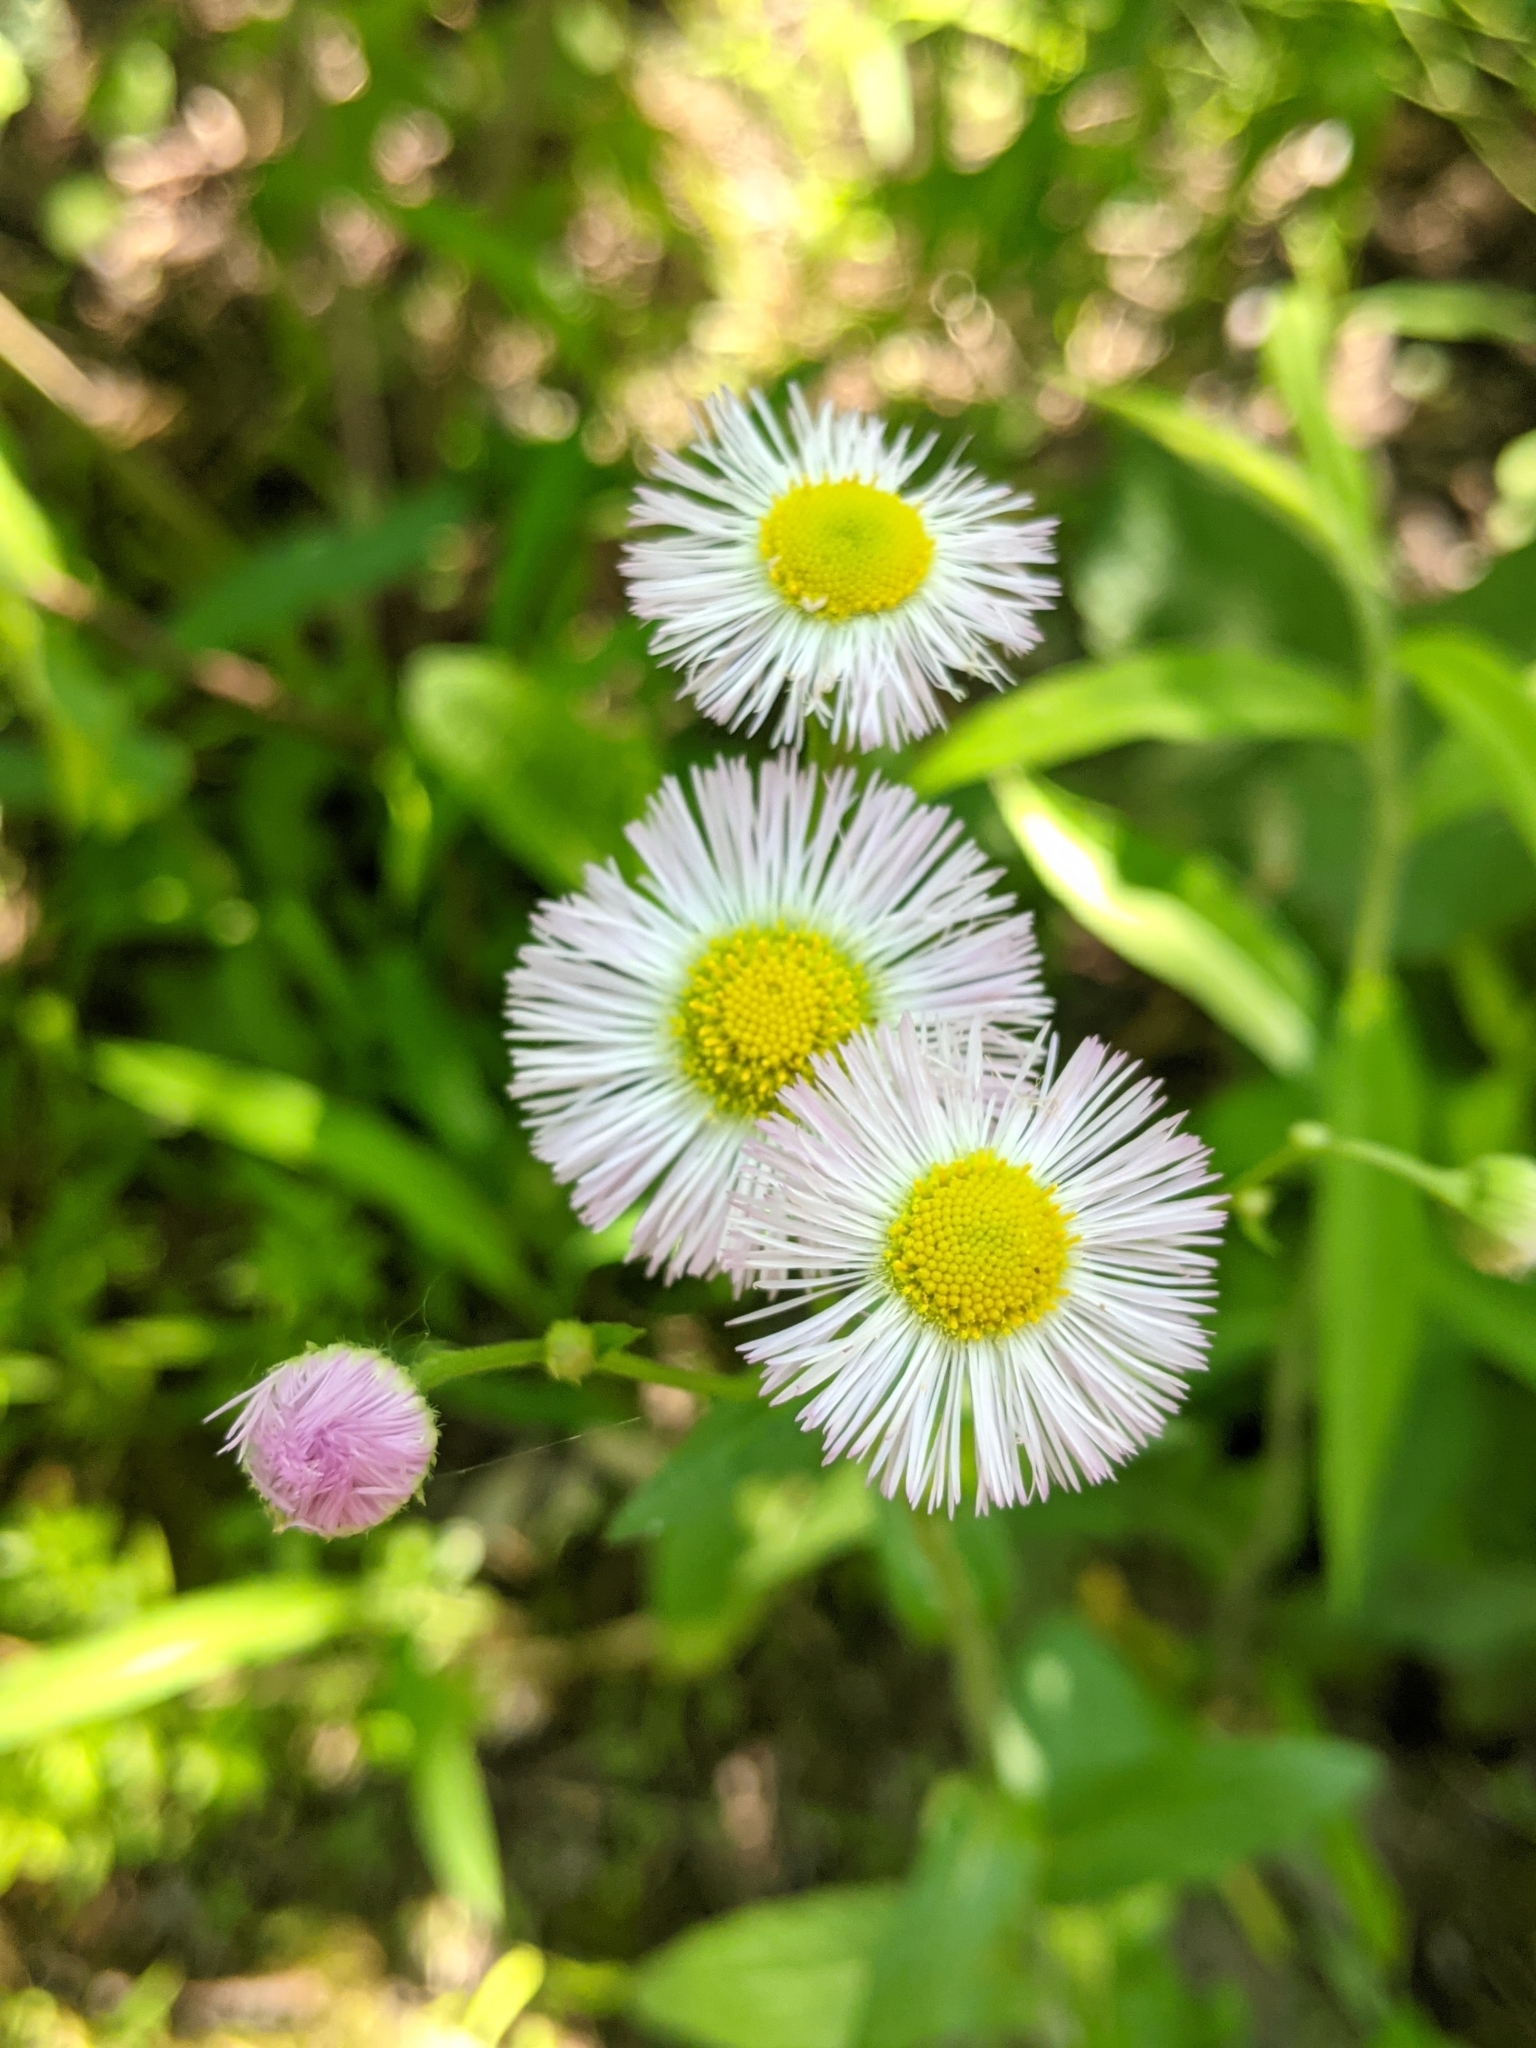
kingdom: Plantae
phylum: Tracheophyta
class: Magnoliopsida
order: Asterales
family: Asteraceae
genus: Erigeron
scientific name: Erigeron philadelphicus
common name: Robin's-plantain
